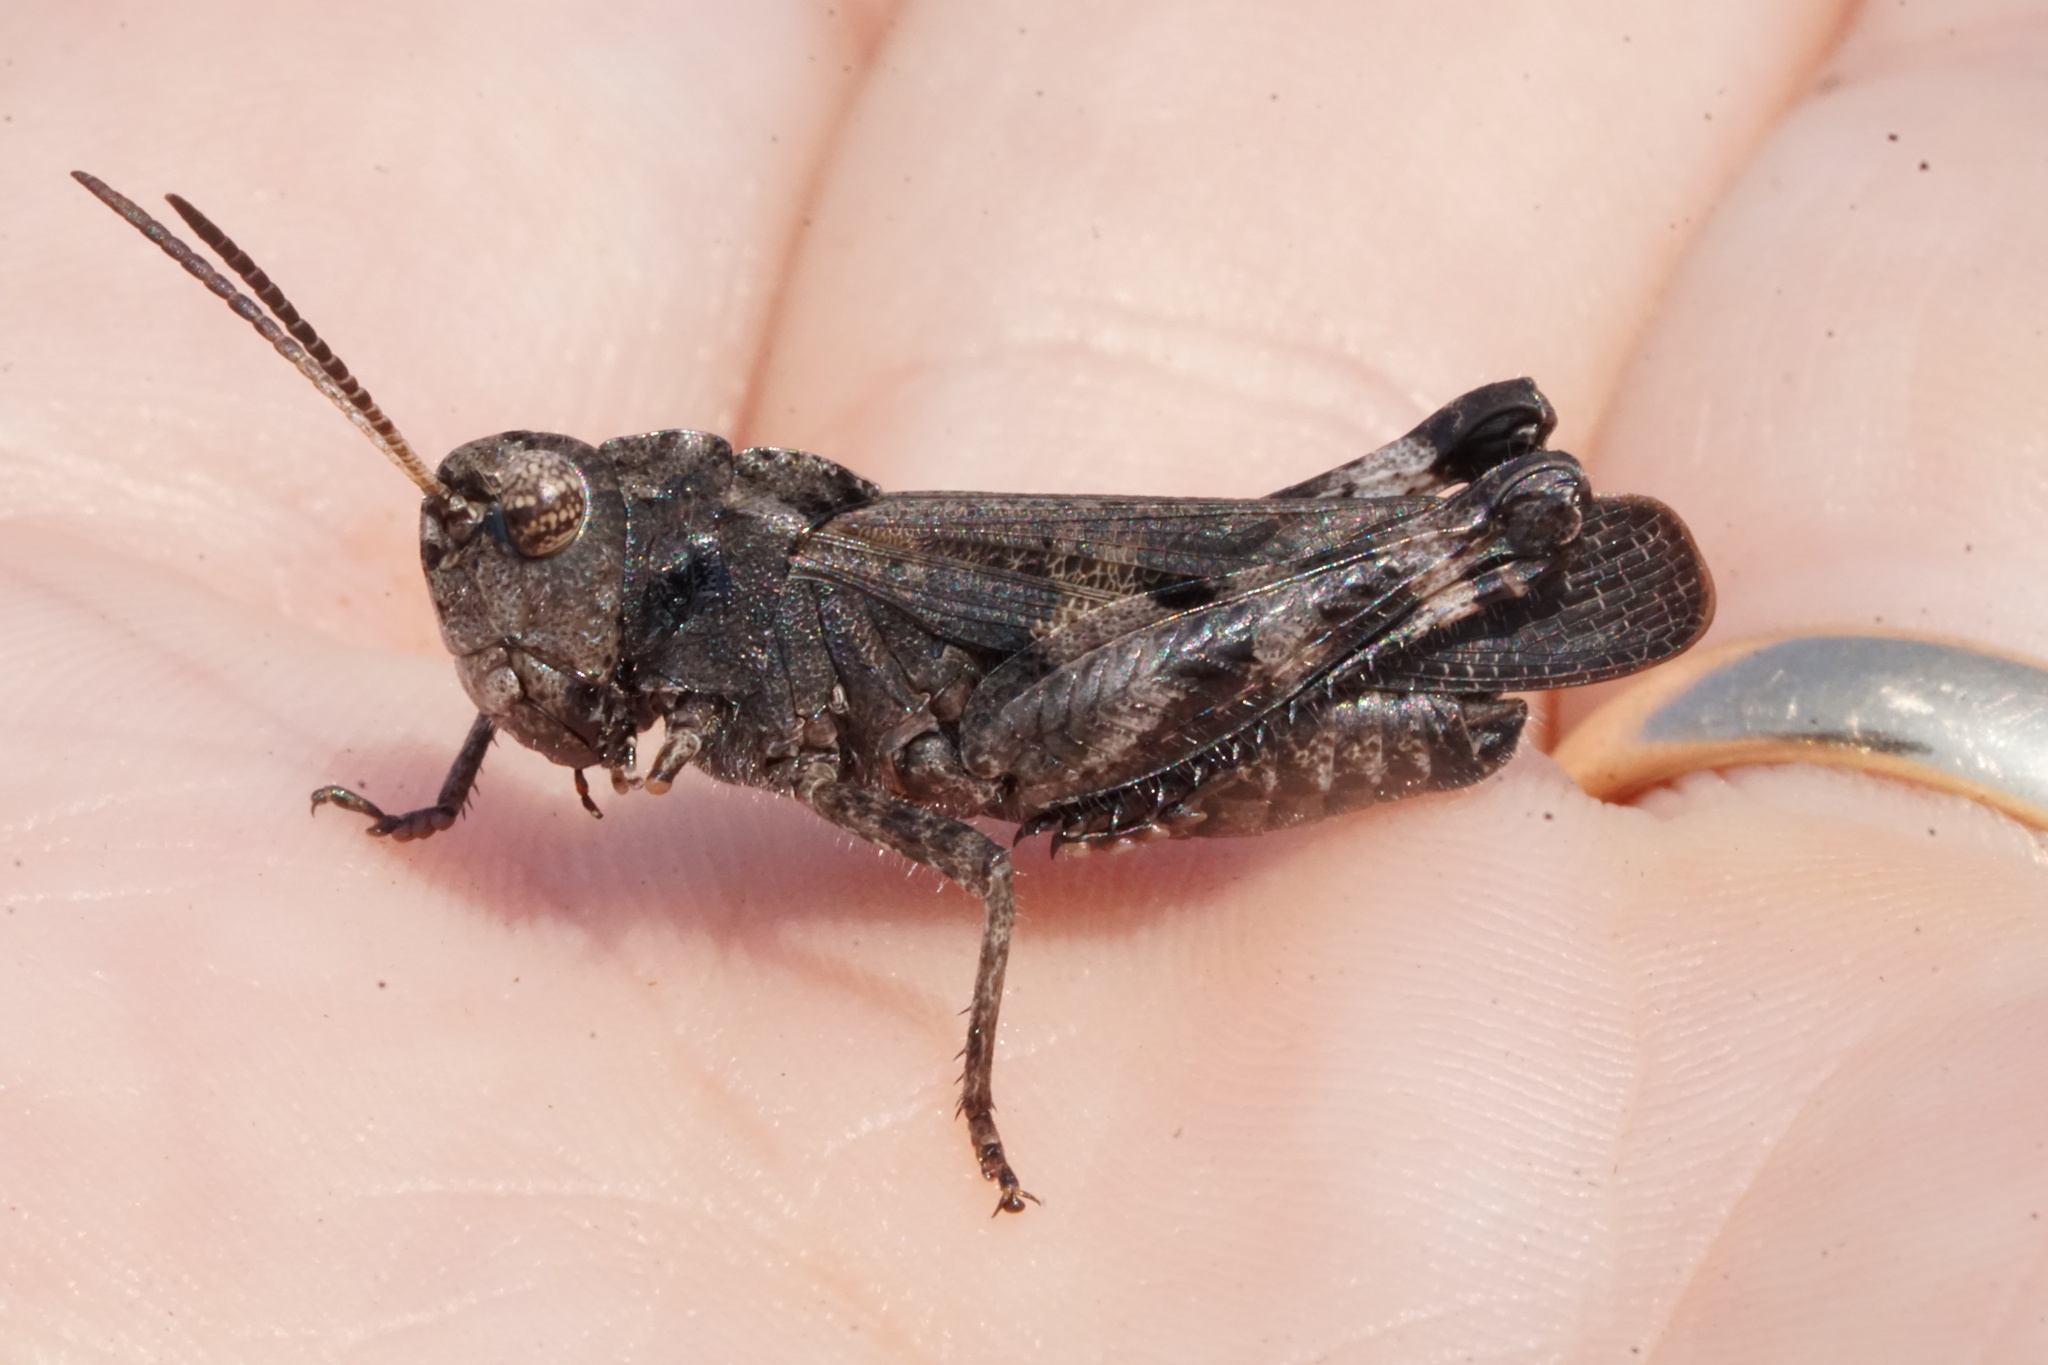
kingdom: Animalia
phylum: Arthropoda
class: Insecta
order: Orthoptera
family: Acrididae
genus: Encoptolophus
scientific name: Encoptolophus sordidus
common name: Dusky grasshopper
